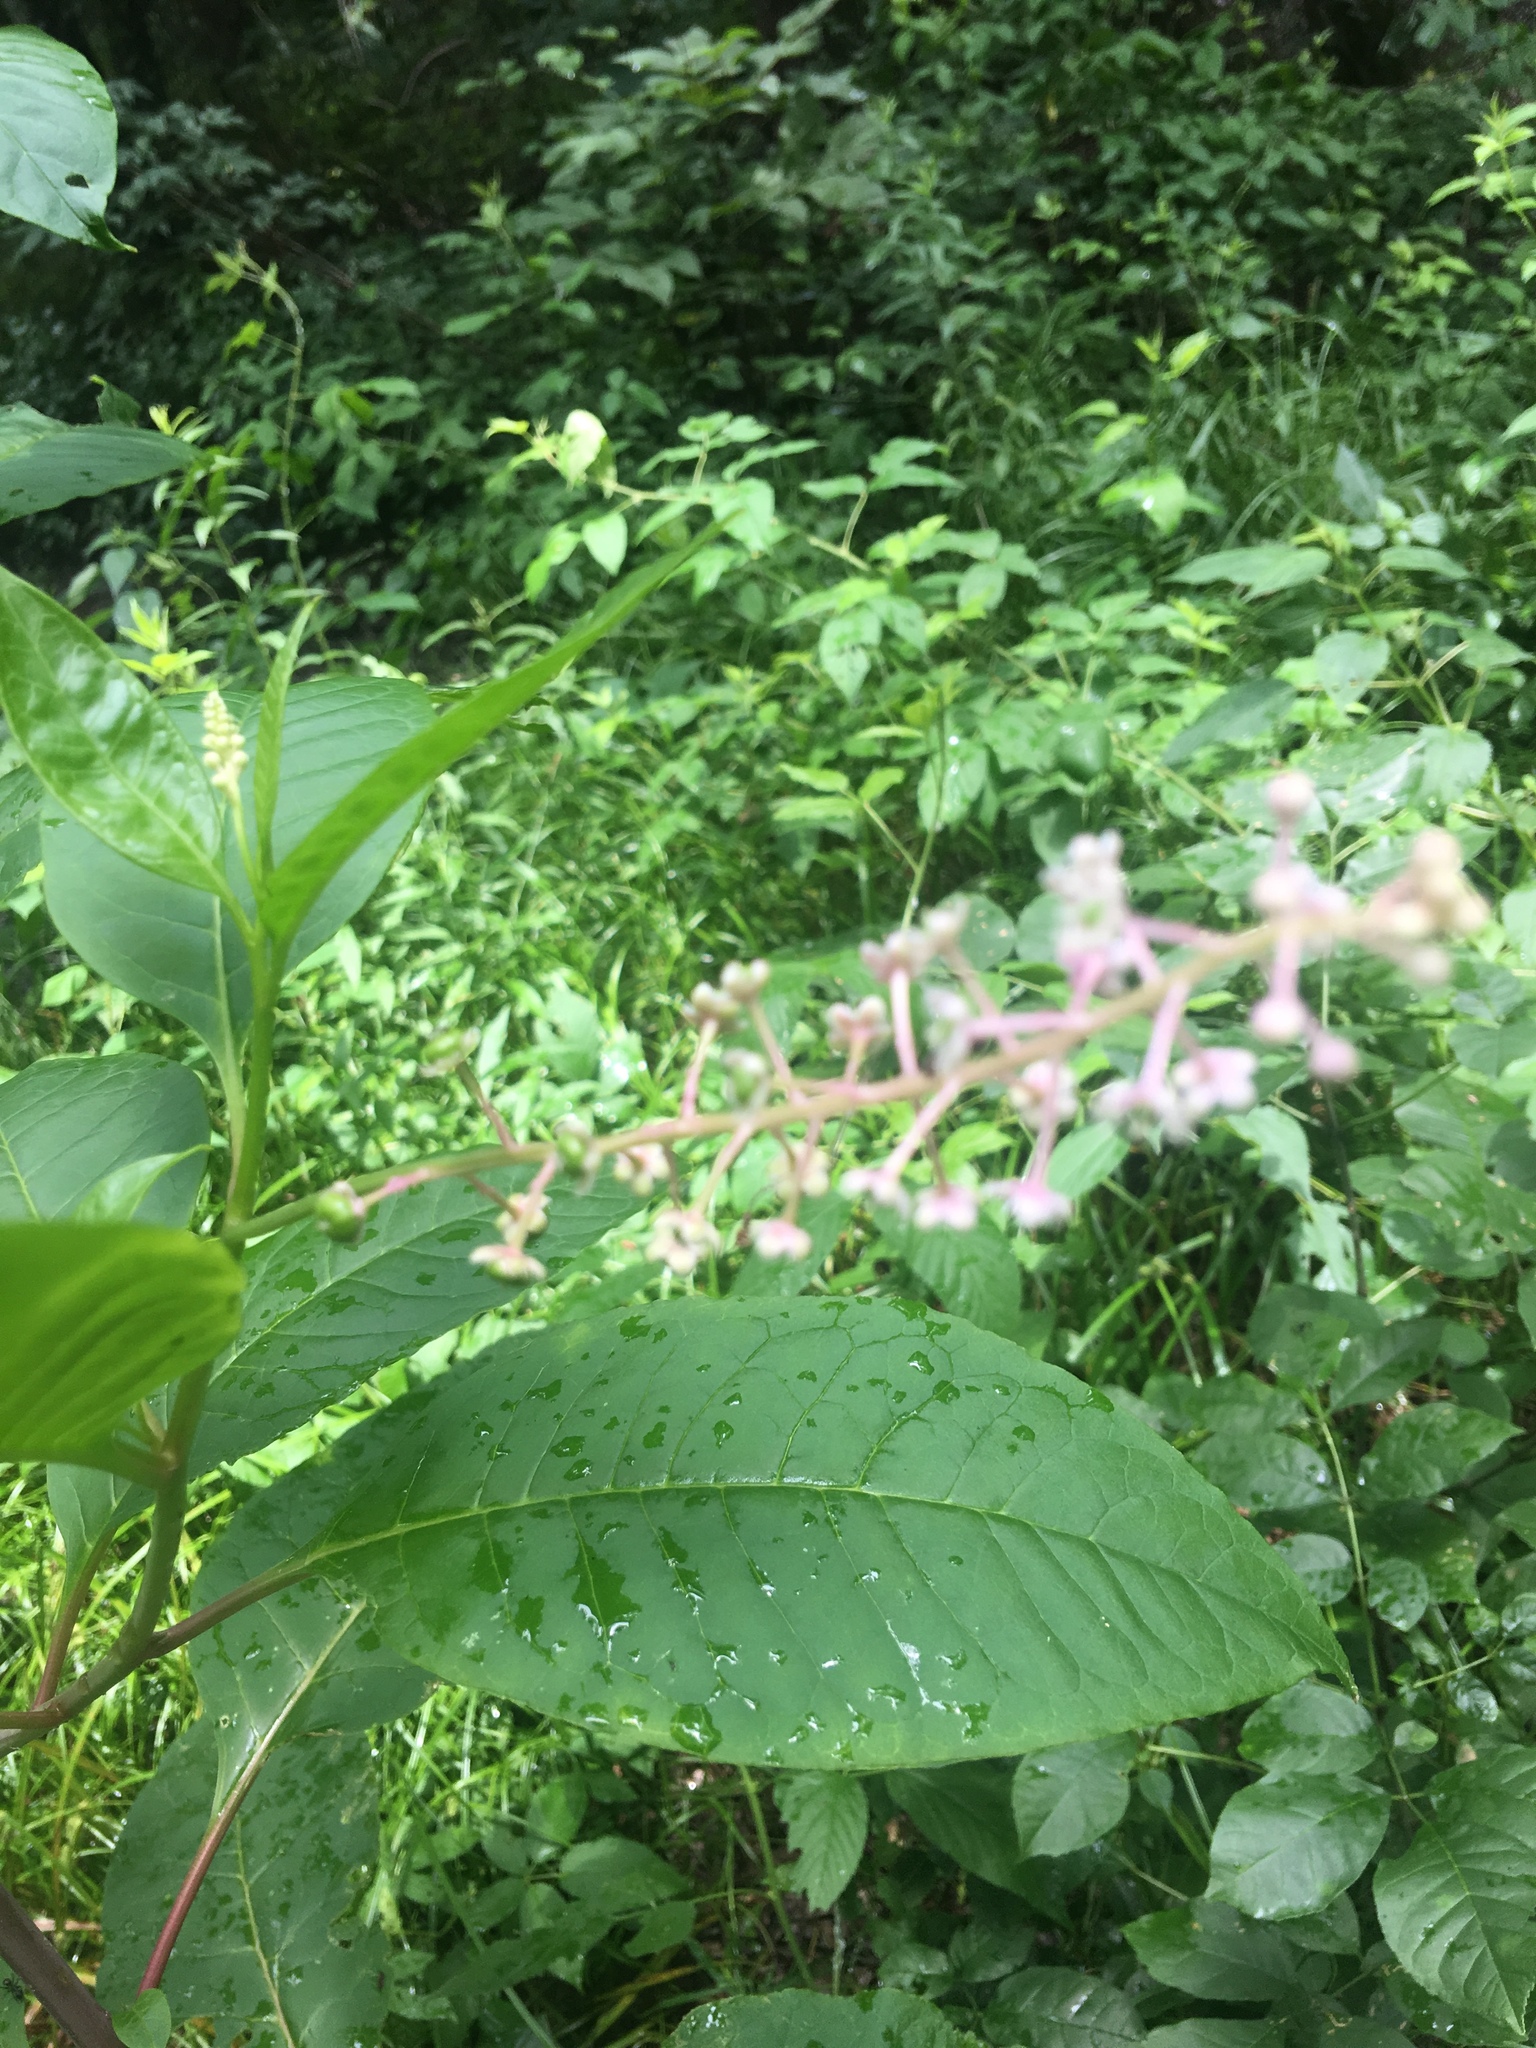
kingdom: Plantae
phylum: Tracheophyta
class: Magnoliopsida
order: Caryophyllales
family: Phytolaccaceae
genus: Phytolacca
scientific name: Phytolacca americana
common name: American pokeweed
